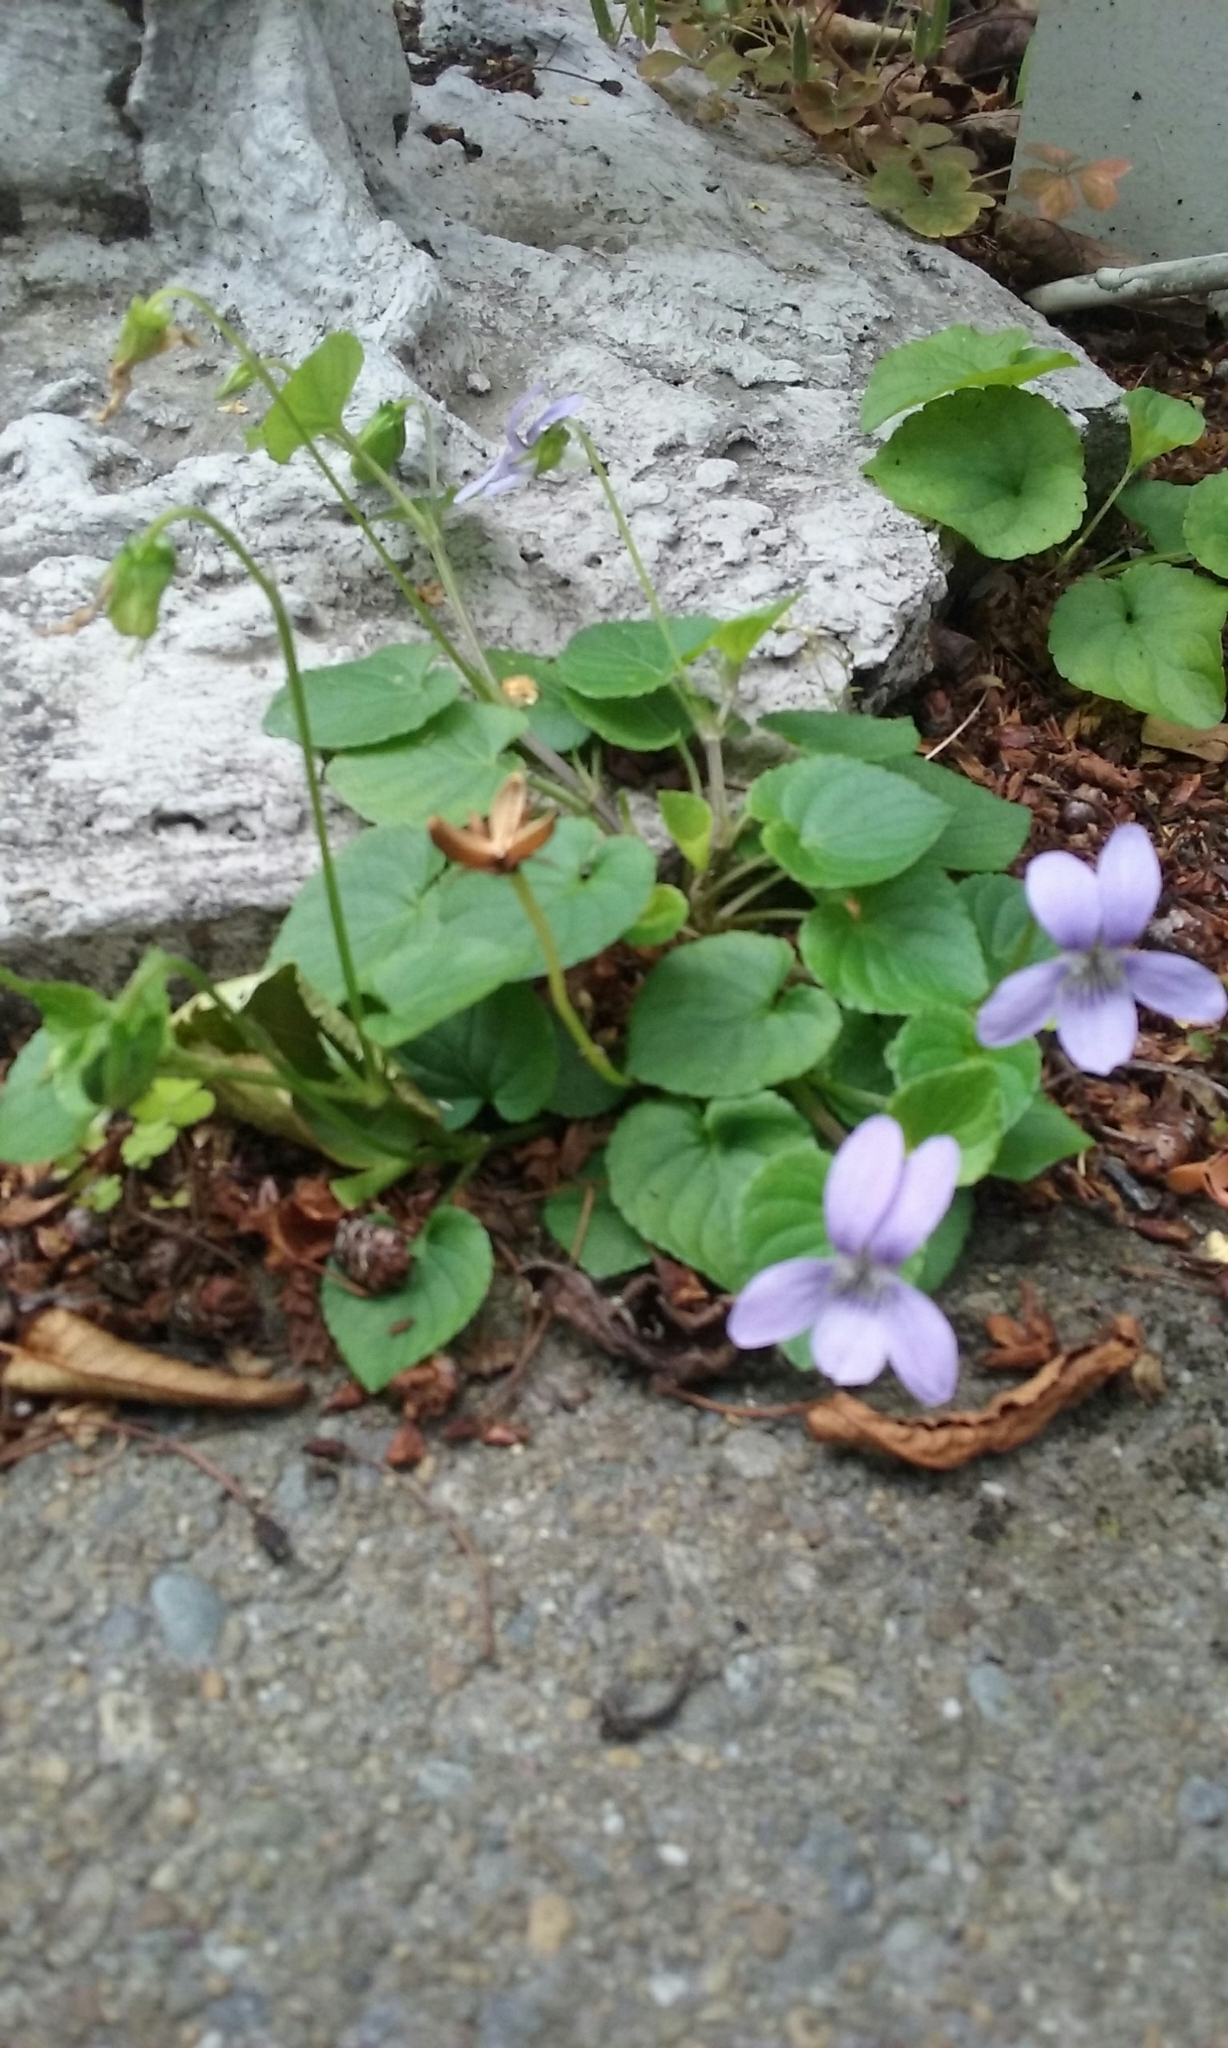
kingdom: Plantae
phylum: Tracheophyta
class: Magnoliopsida
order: Malpighiales
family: Violaceae
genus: Viola
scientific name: Viola odorata
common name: Sweet violet
